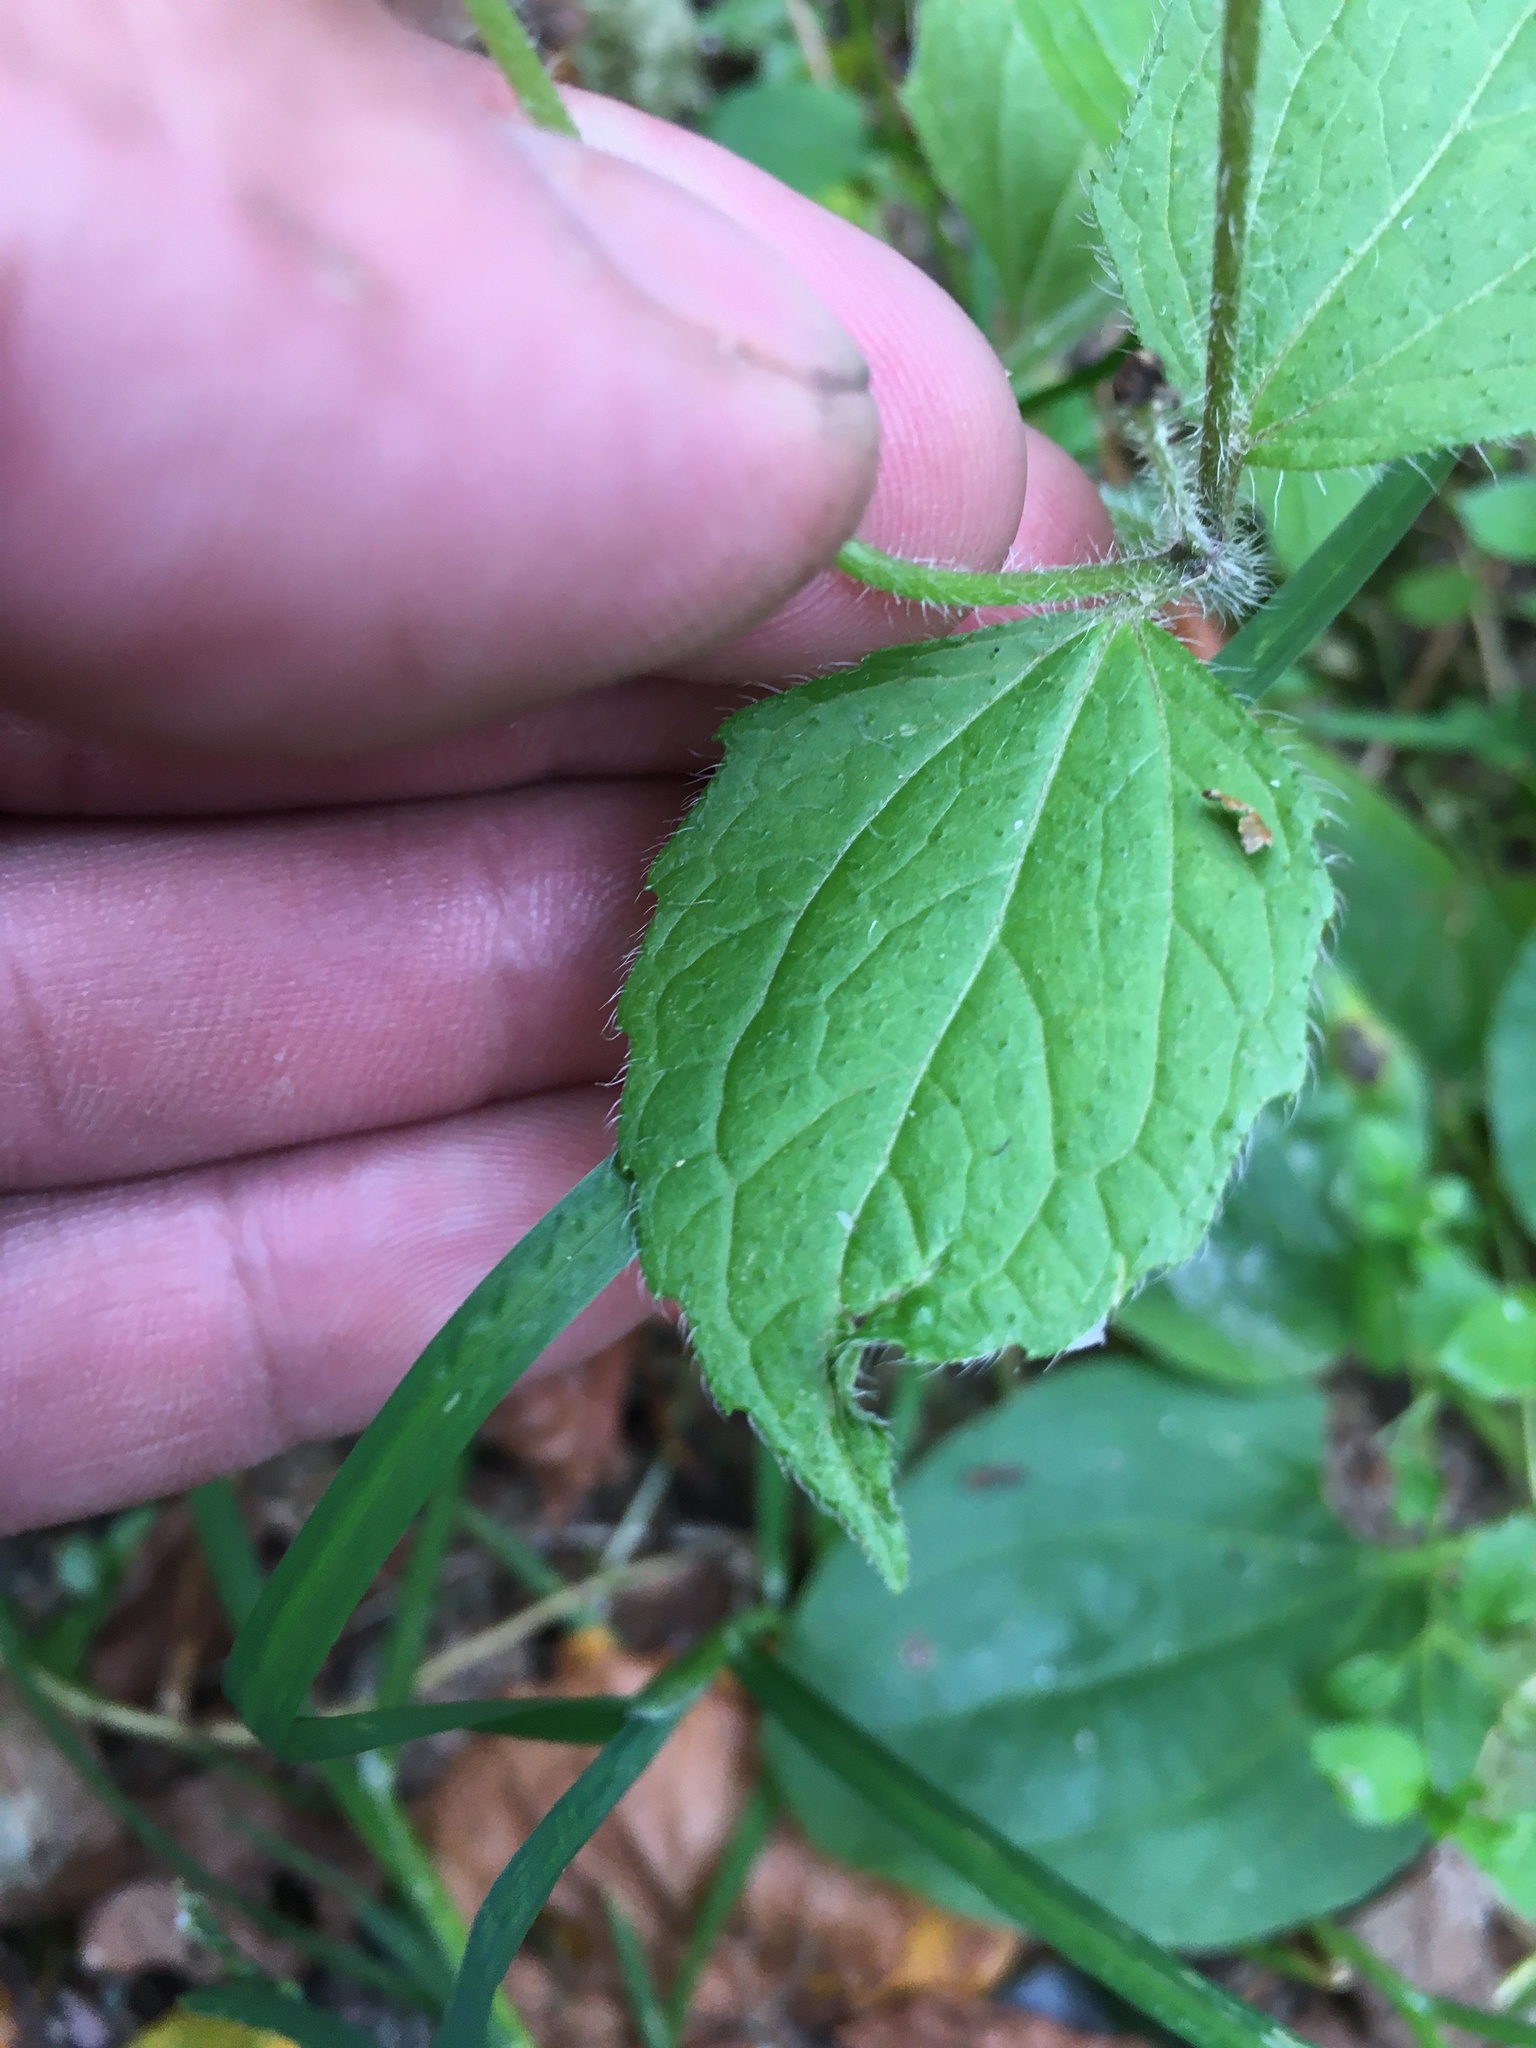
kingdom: Plantae
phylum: Tracheophyta
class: Magnoliopsida
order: Asterales
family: Asteraceae
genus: Galinsoga
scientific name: Galinsoga quadriradiata
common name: Shaggy soldier
